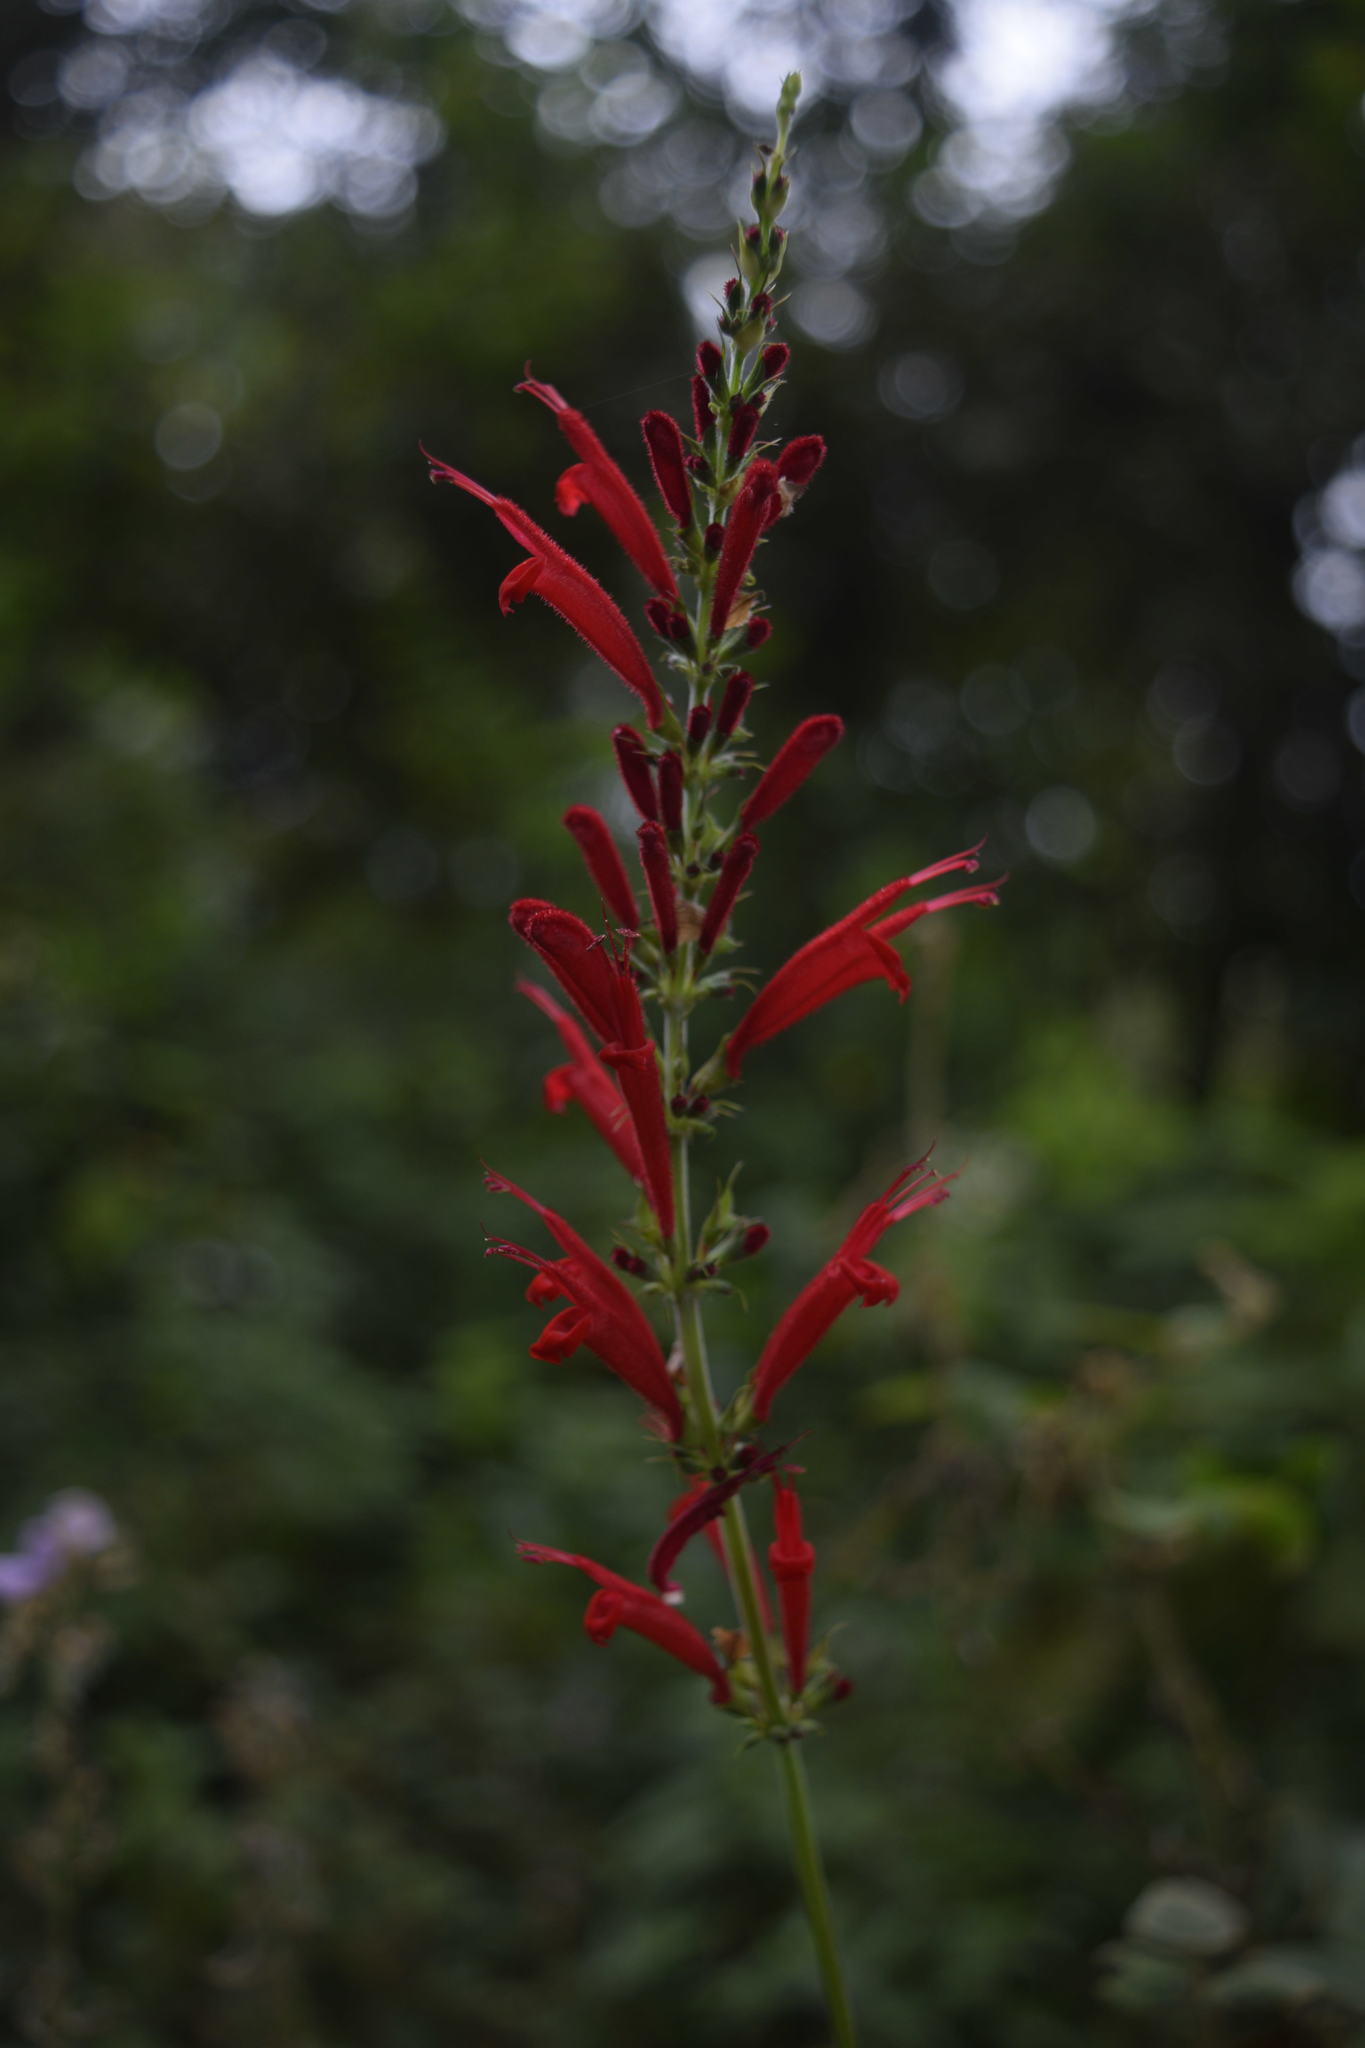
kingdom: Plantae
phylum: Tracheophyta
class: Magnoliopsida
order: Lamiales
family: Lamiaceae
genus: Salvia
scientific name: Salvia cinnabarina
